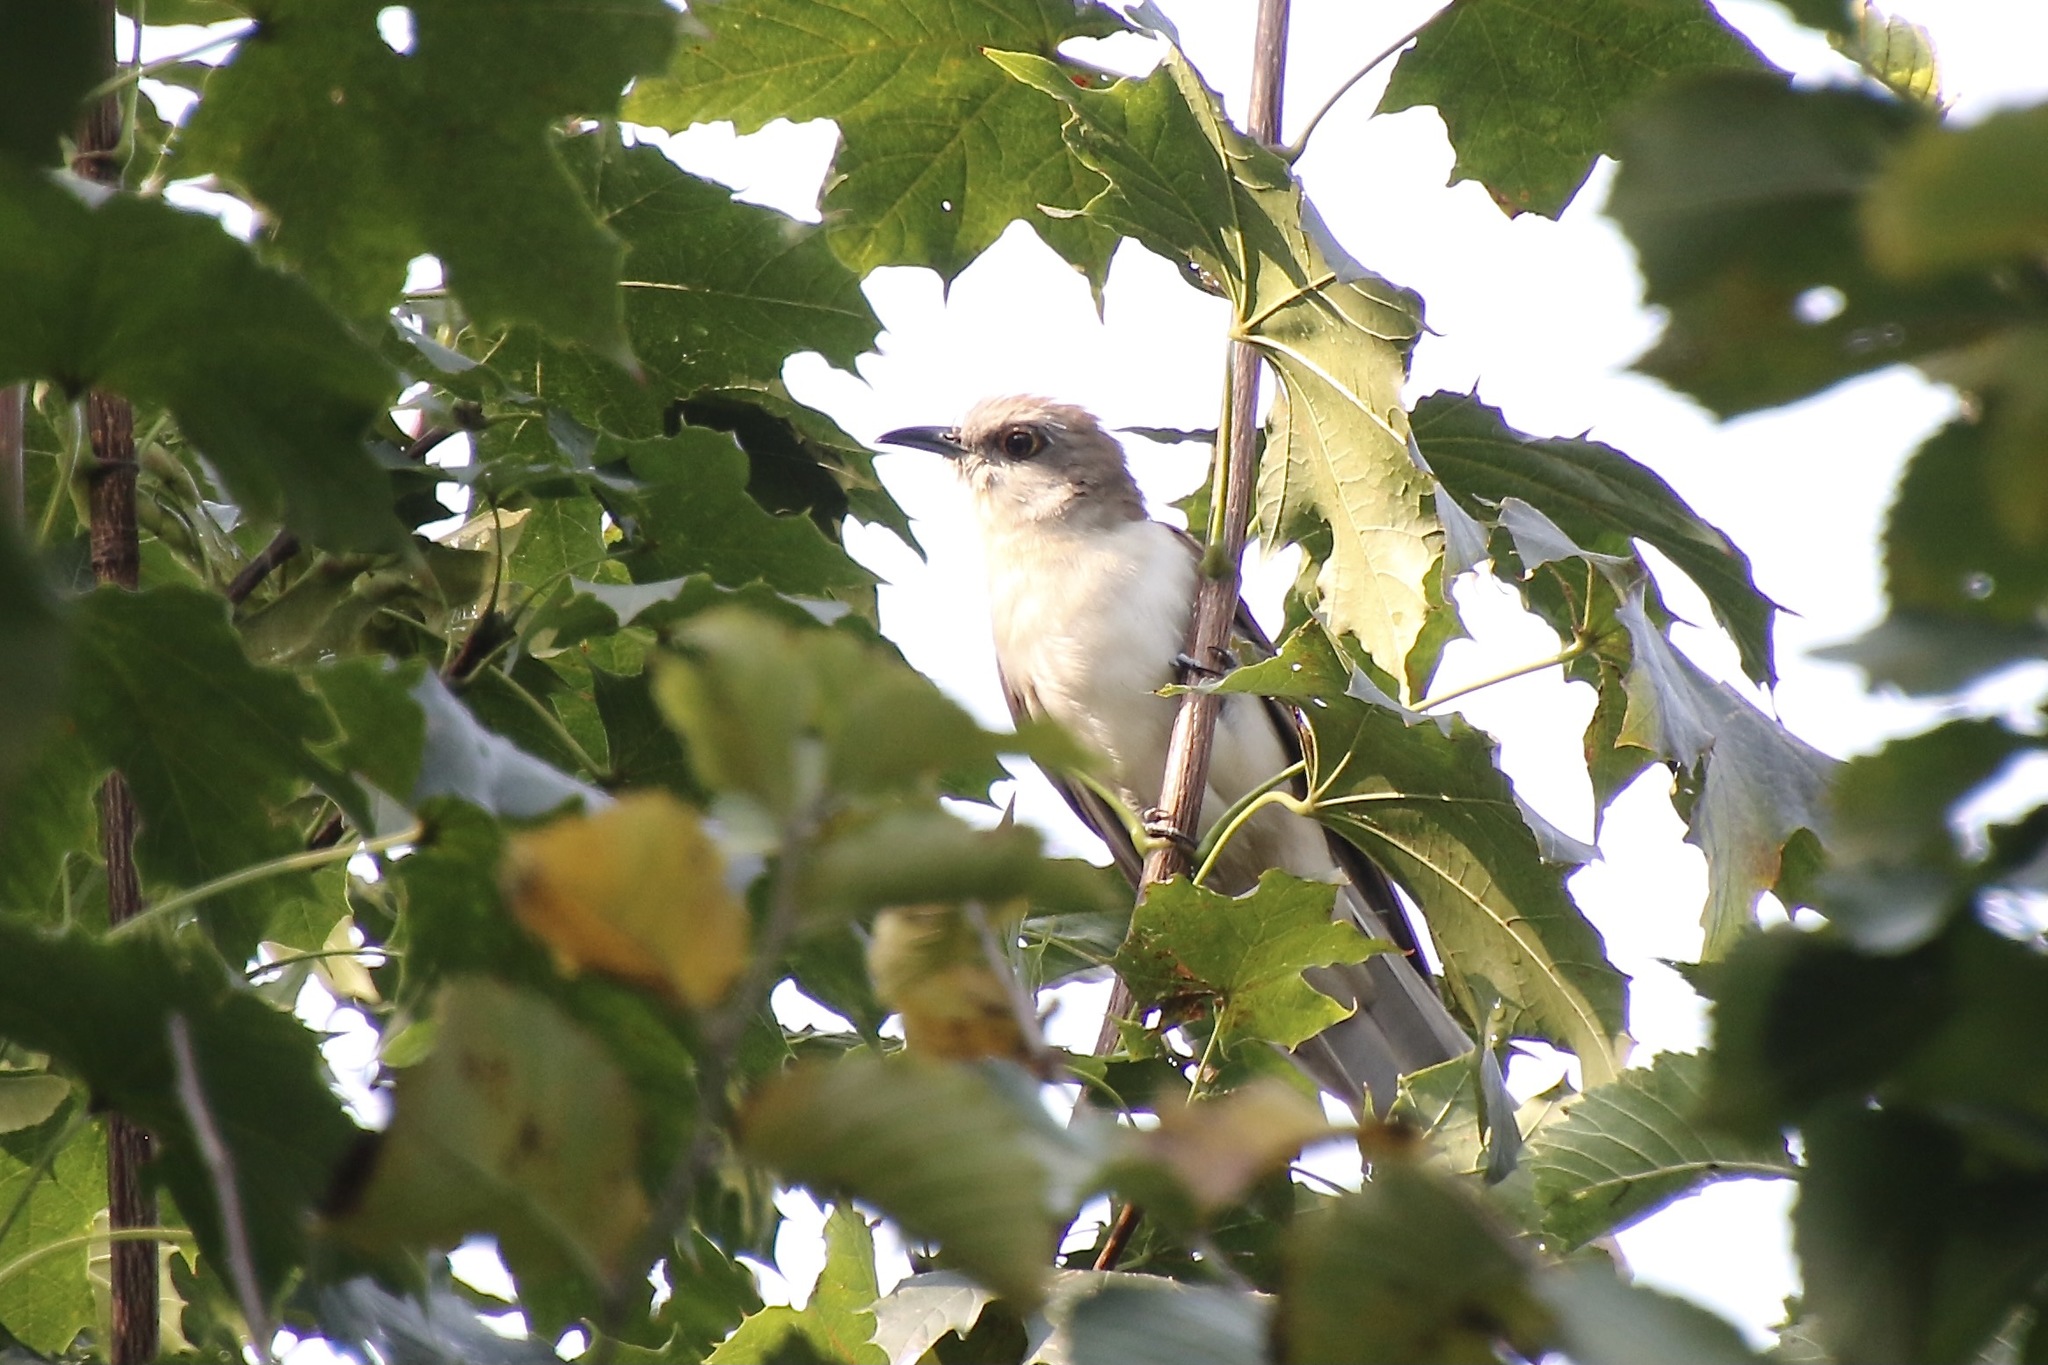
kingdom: Animalia
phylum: Chordata
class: Aves
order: Cuculiformes
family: Cuculidae
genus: Coccyzus
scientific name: Coccyzus erythropthalmus
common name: Black-billed cuckoo
